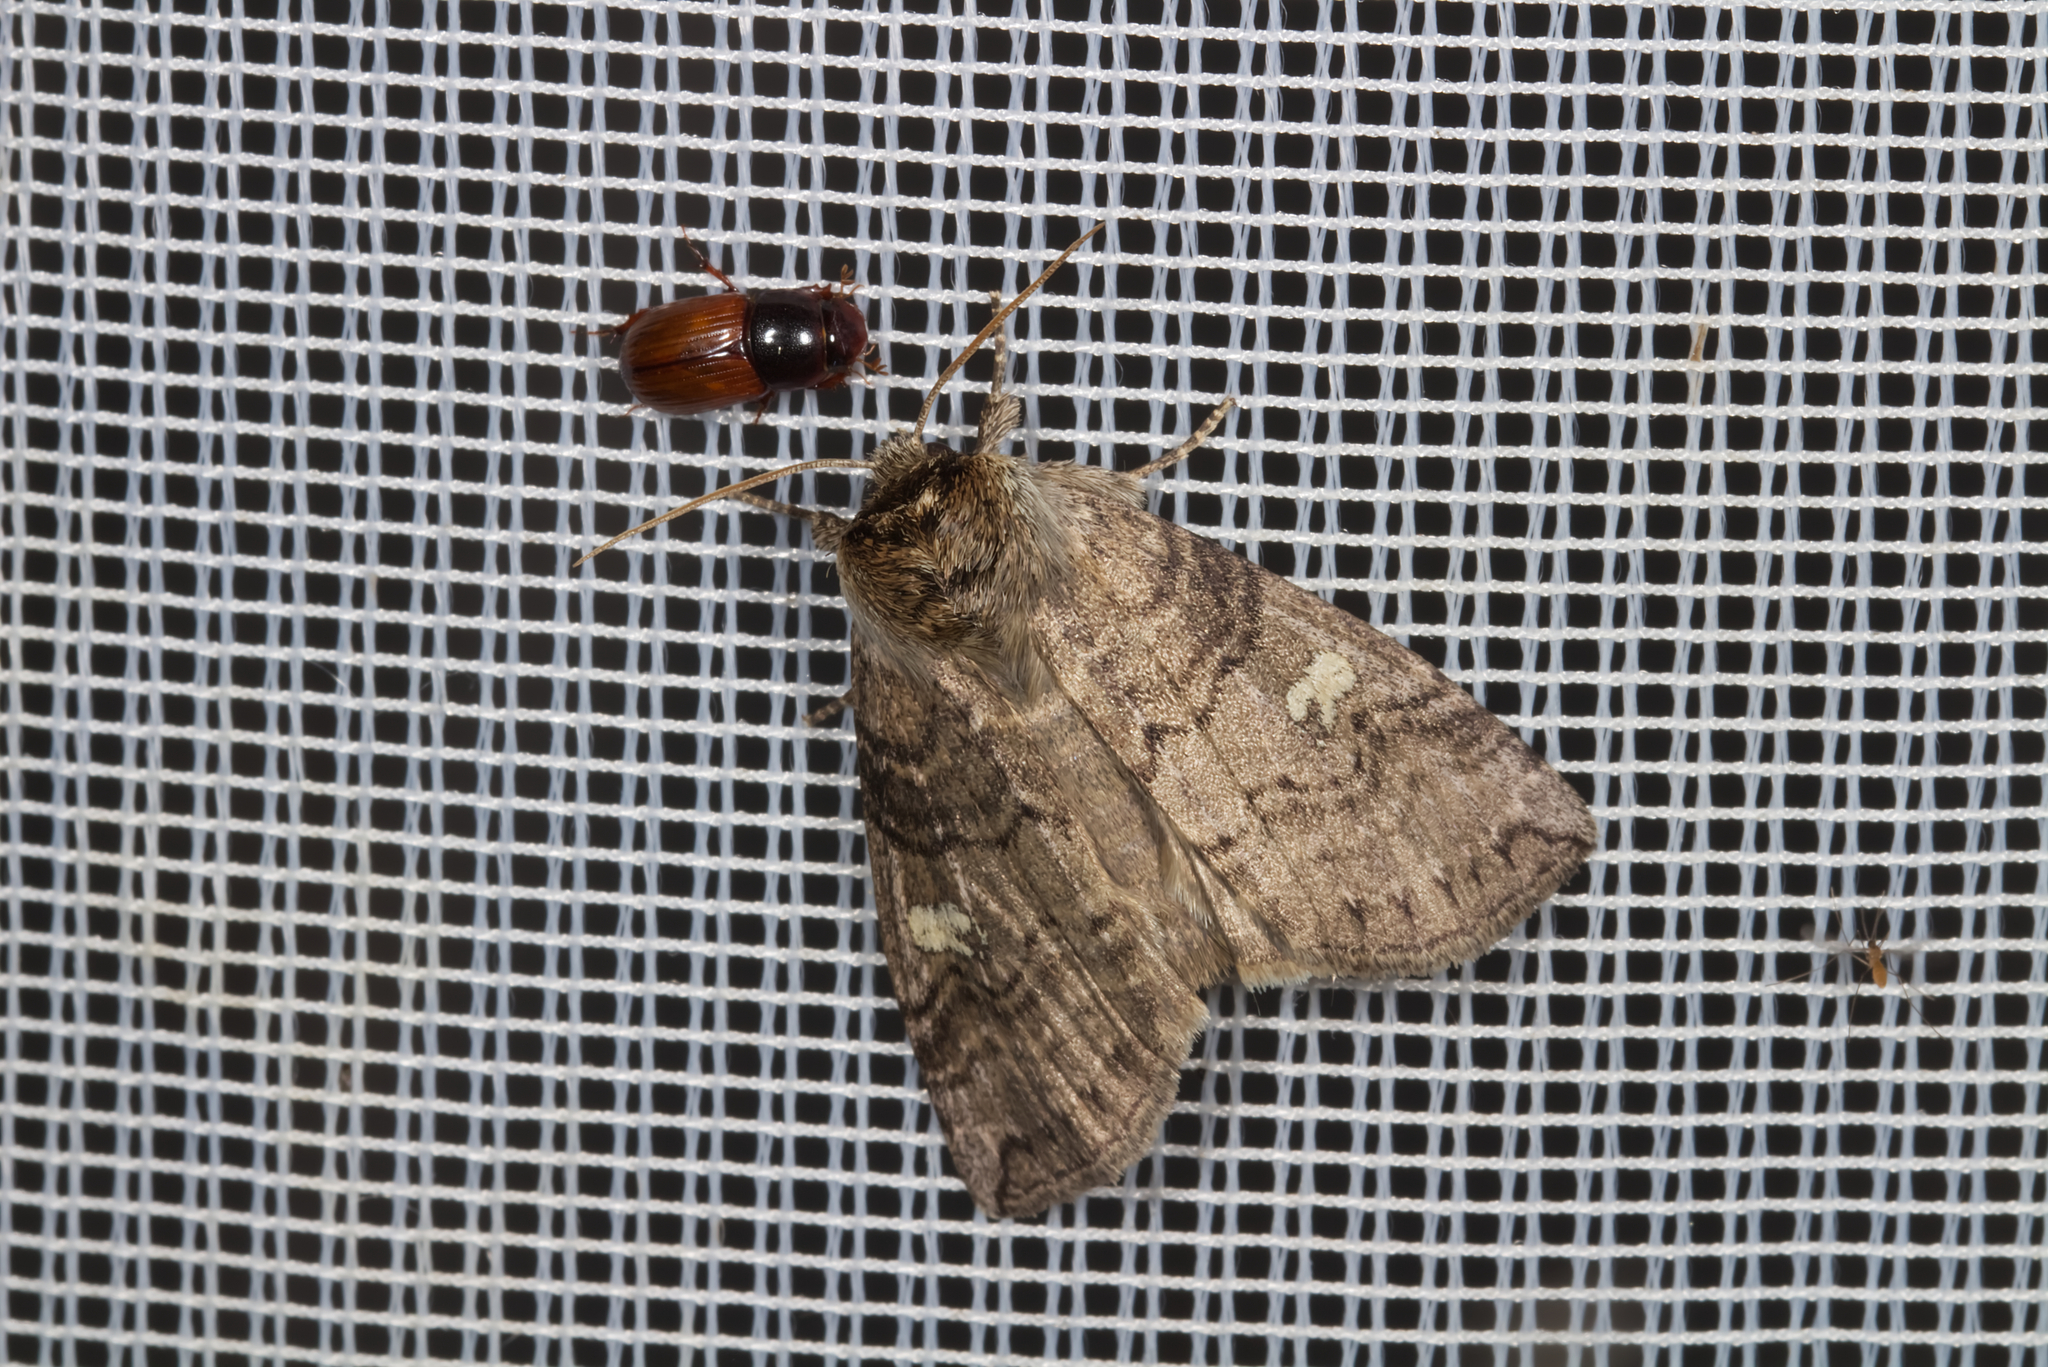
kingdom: Animalia
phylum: Arthropoda
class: Insecta
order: Lepidoptera
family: Drepanidae
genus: Tethea
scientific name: Tethea or
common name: Poplar lutestring
